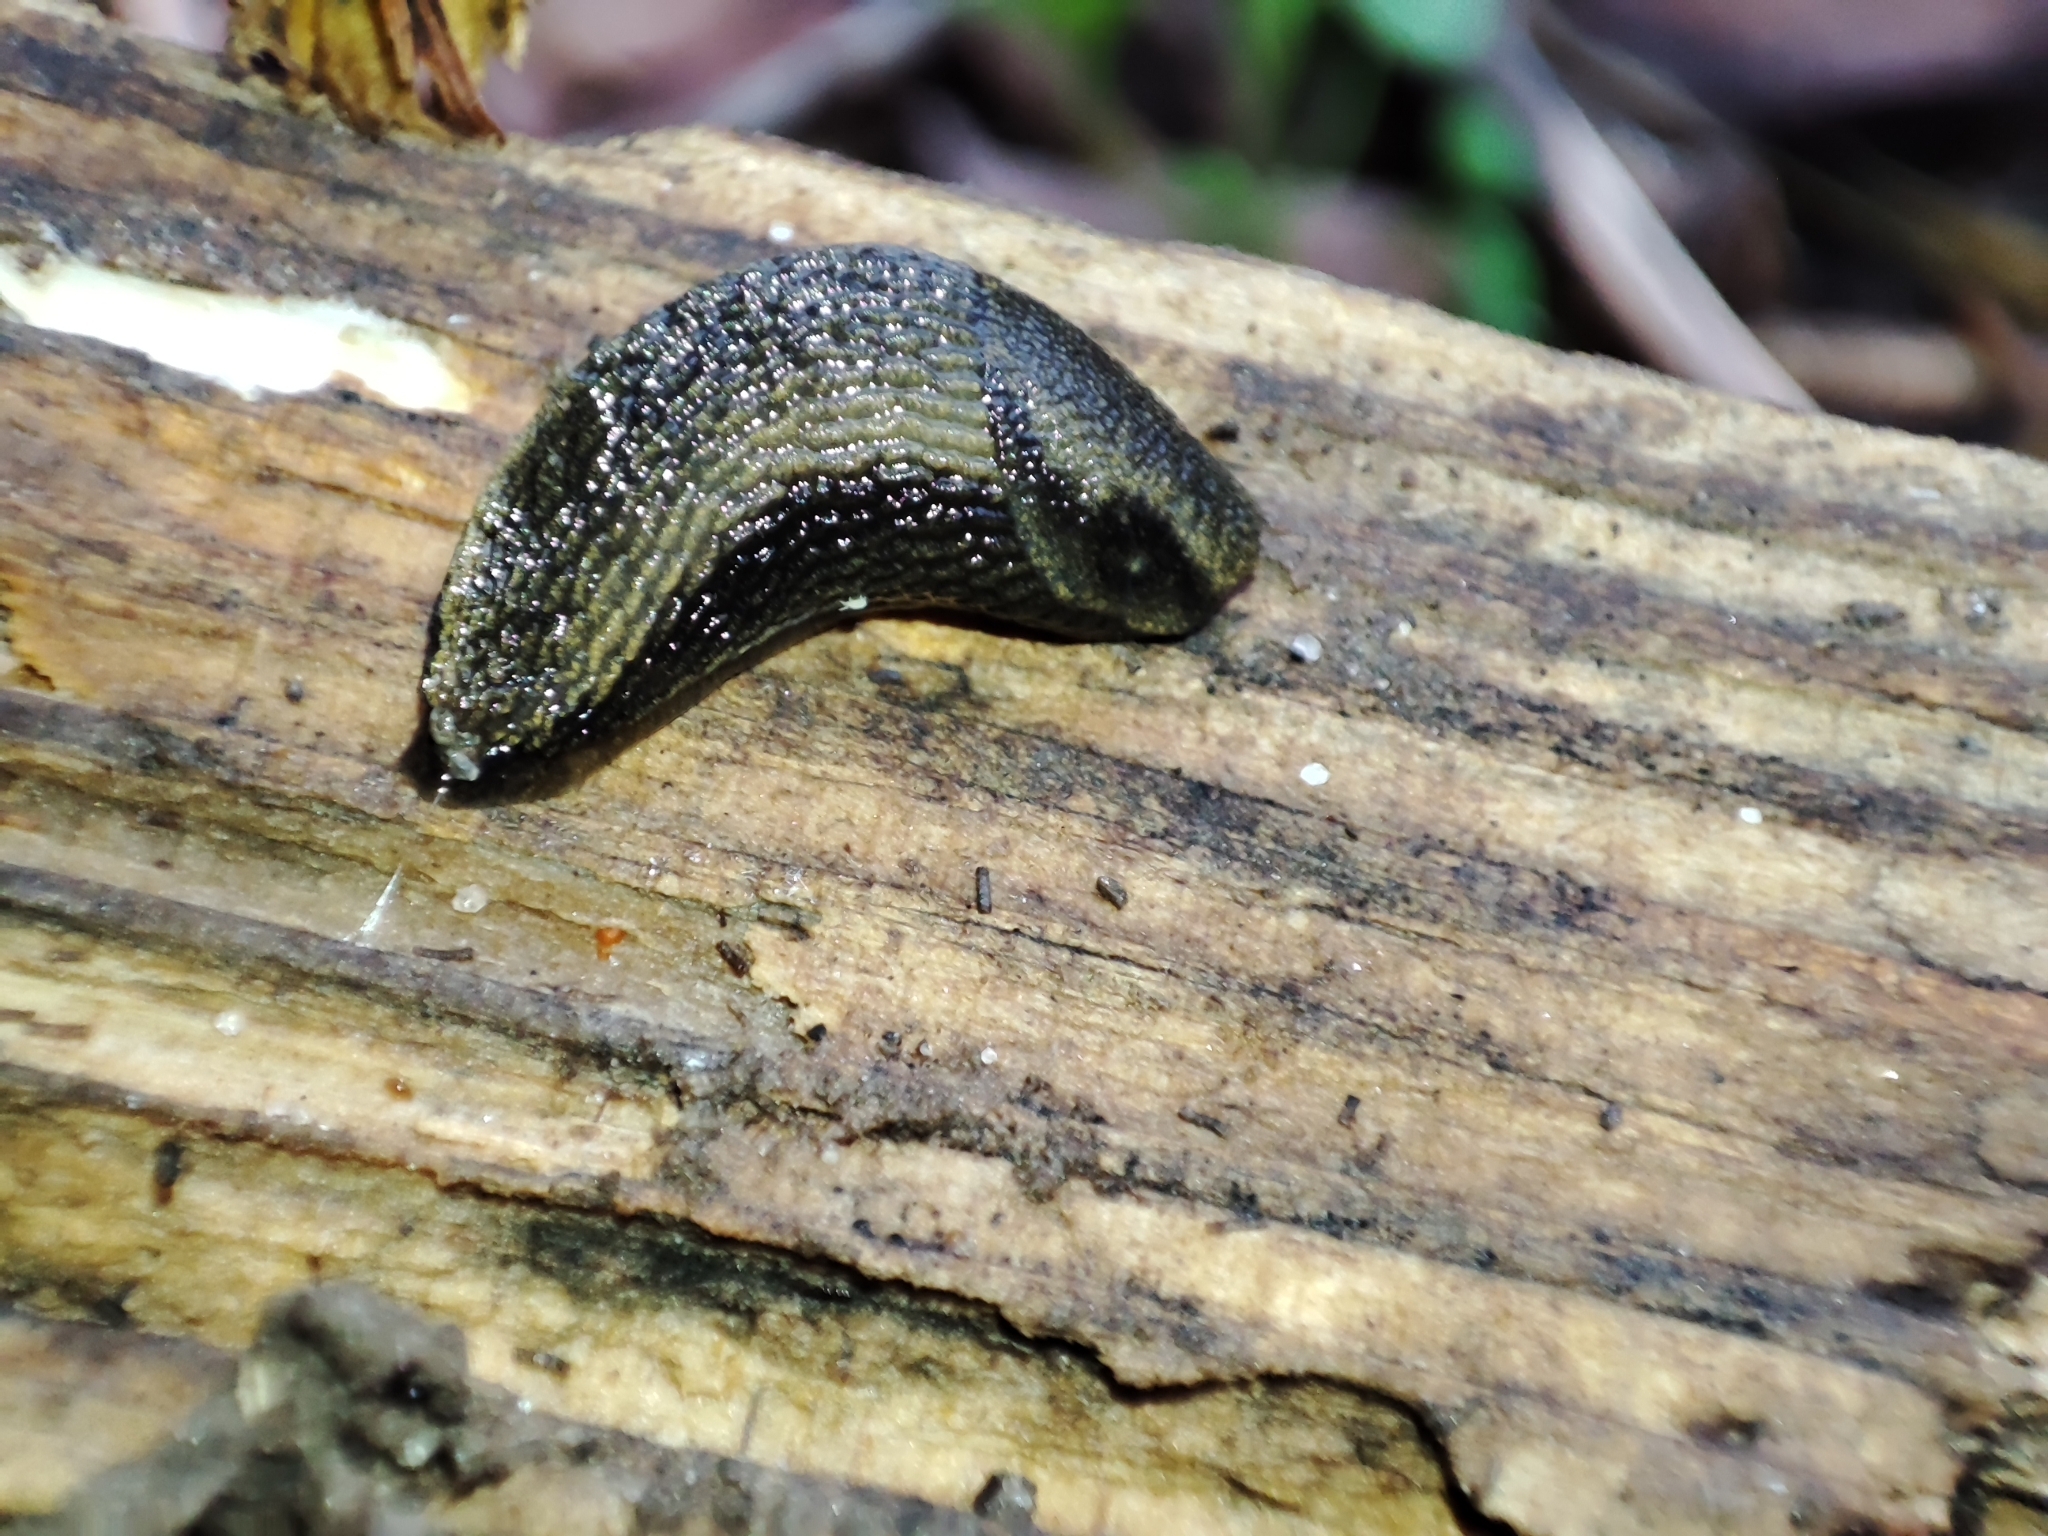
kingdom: Animalia
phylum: Mollusca
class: Gastropoda
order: Stylommatophora
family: Arionidae
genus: Arion
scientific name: Arion distinctus
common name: Darkface arion
